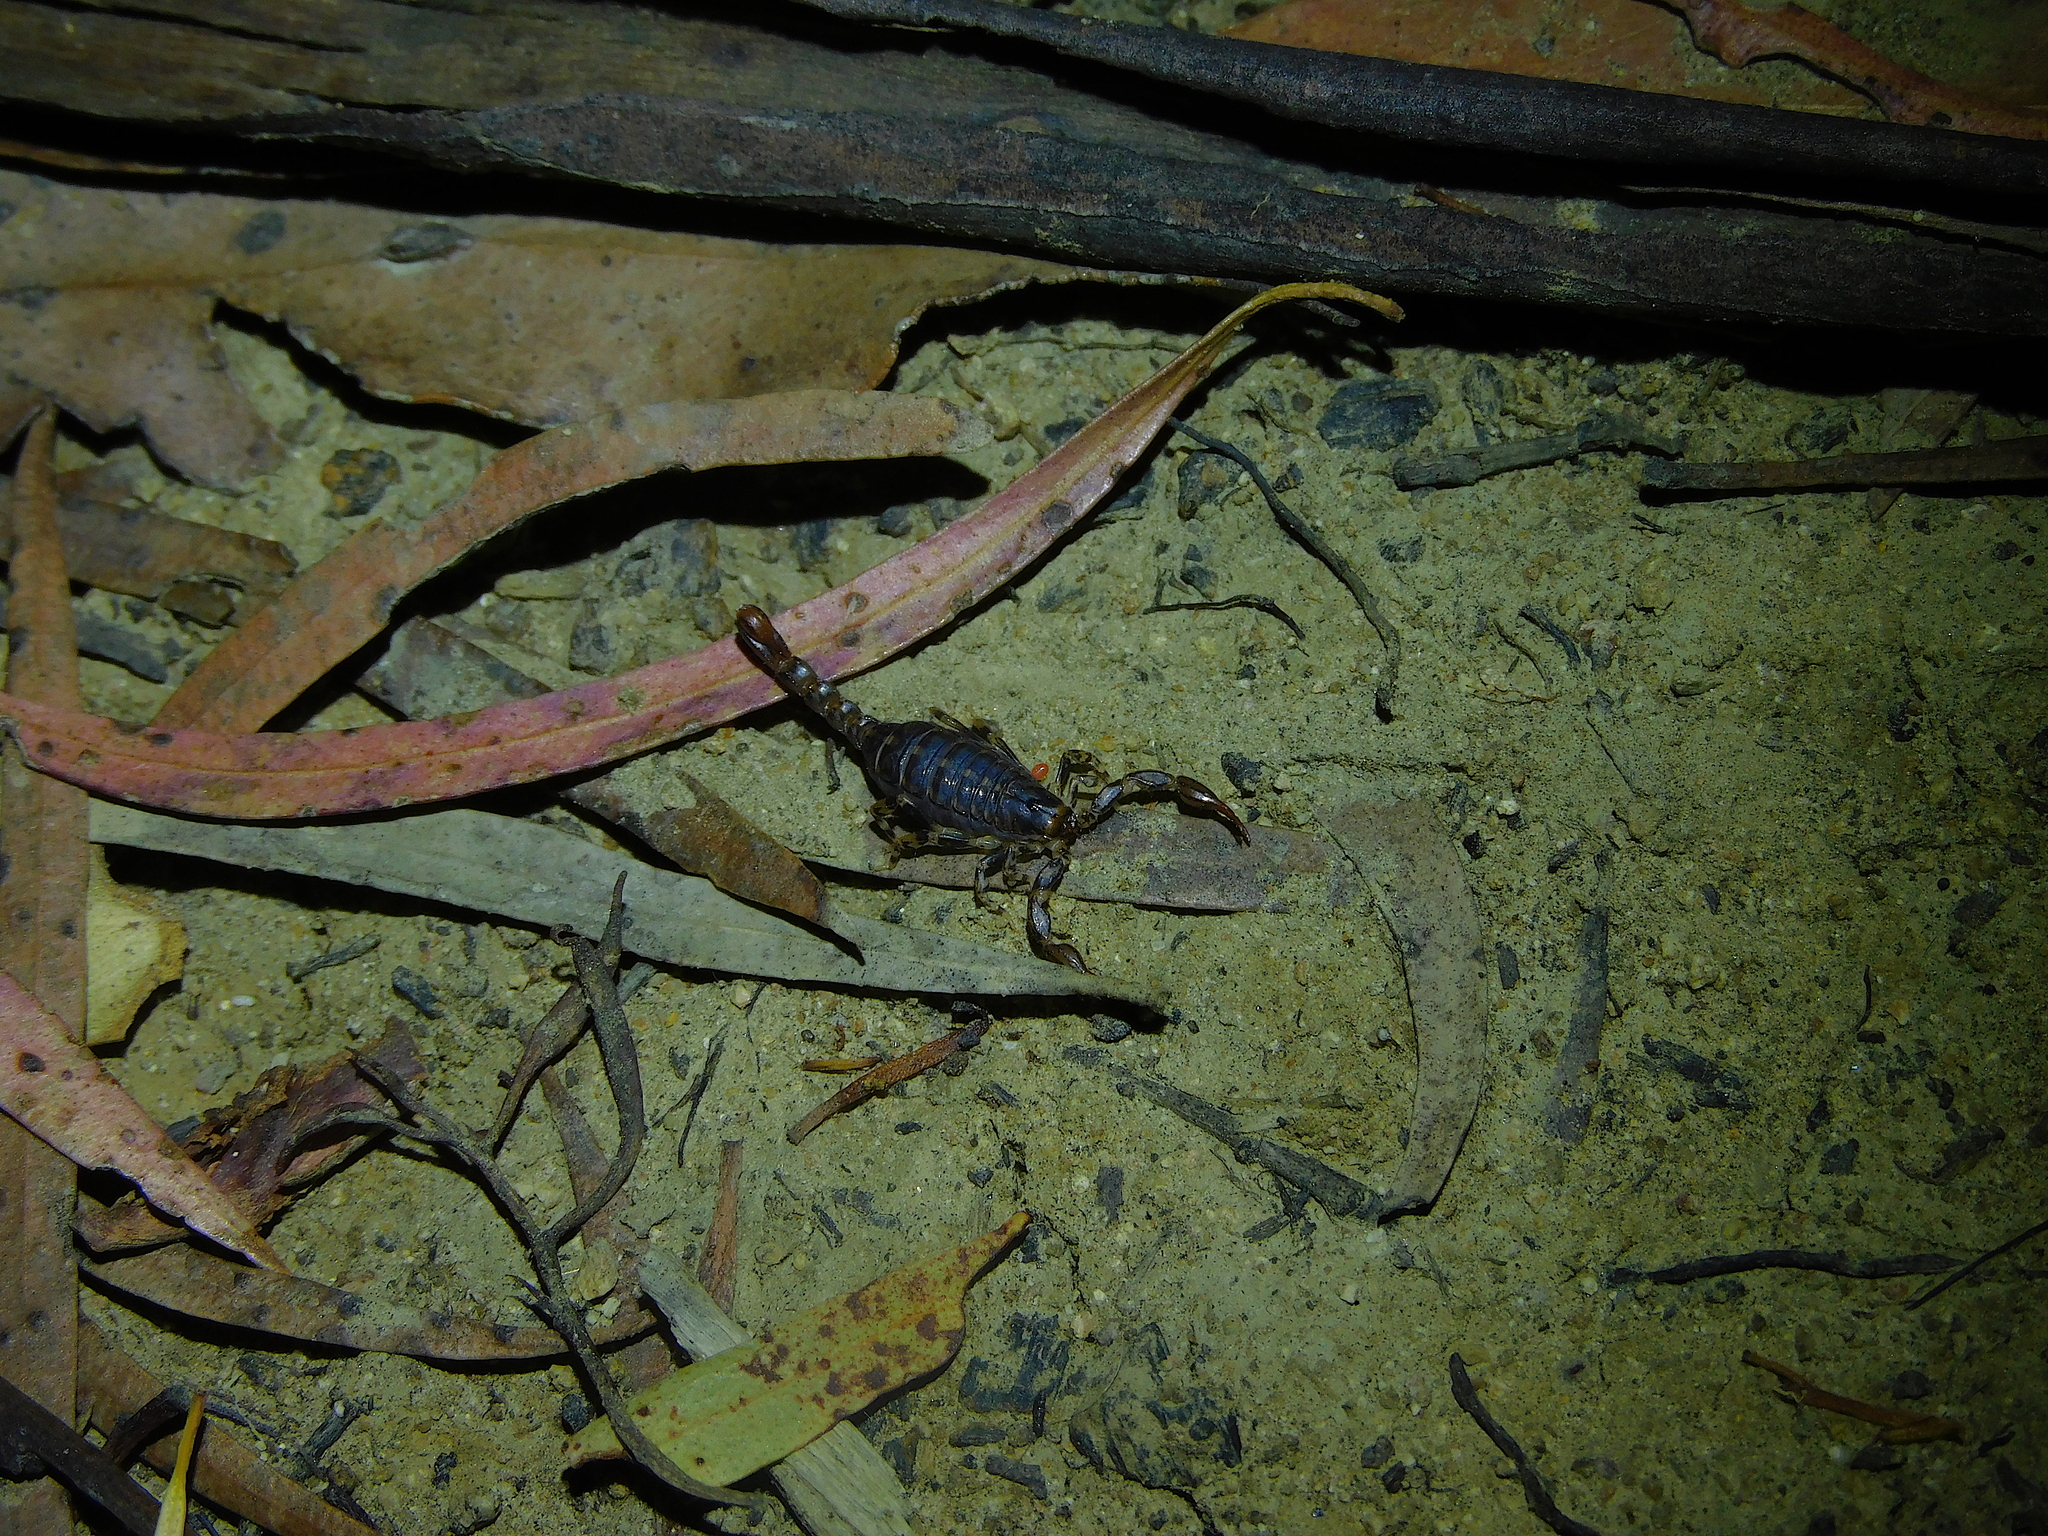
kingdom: Animalia
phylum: Arthropoda
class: Arachnida
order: Scorpiones
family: Bothriuridae
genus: Cercophonius
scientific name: Cercophonius squama
